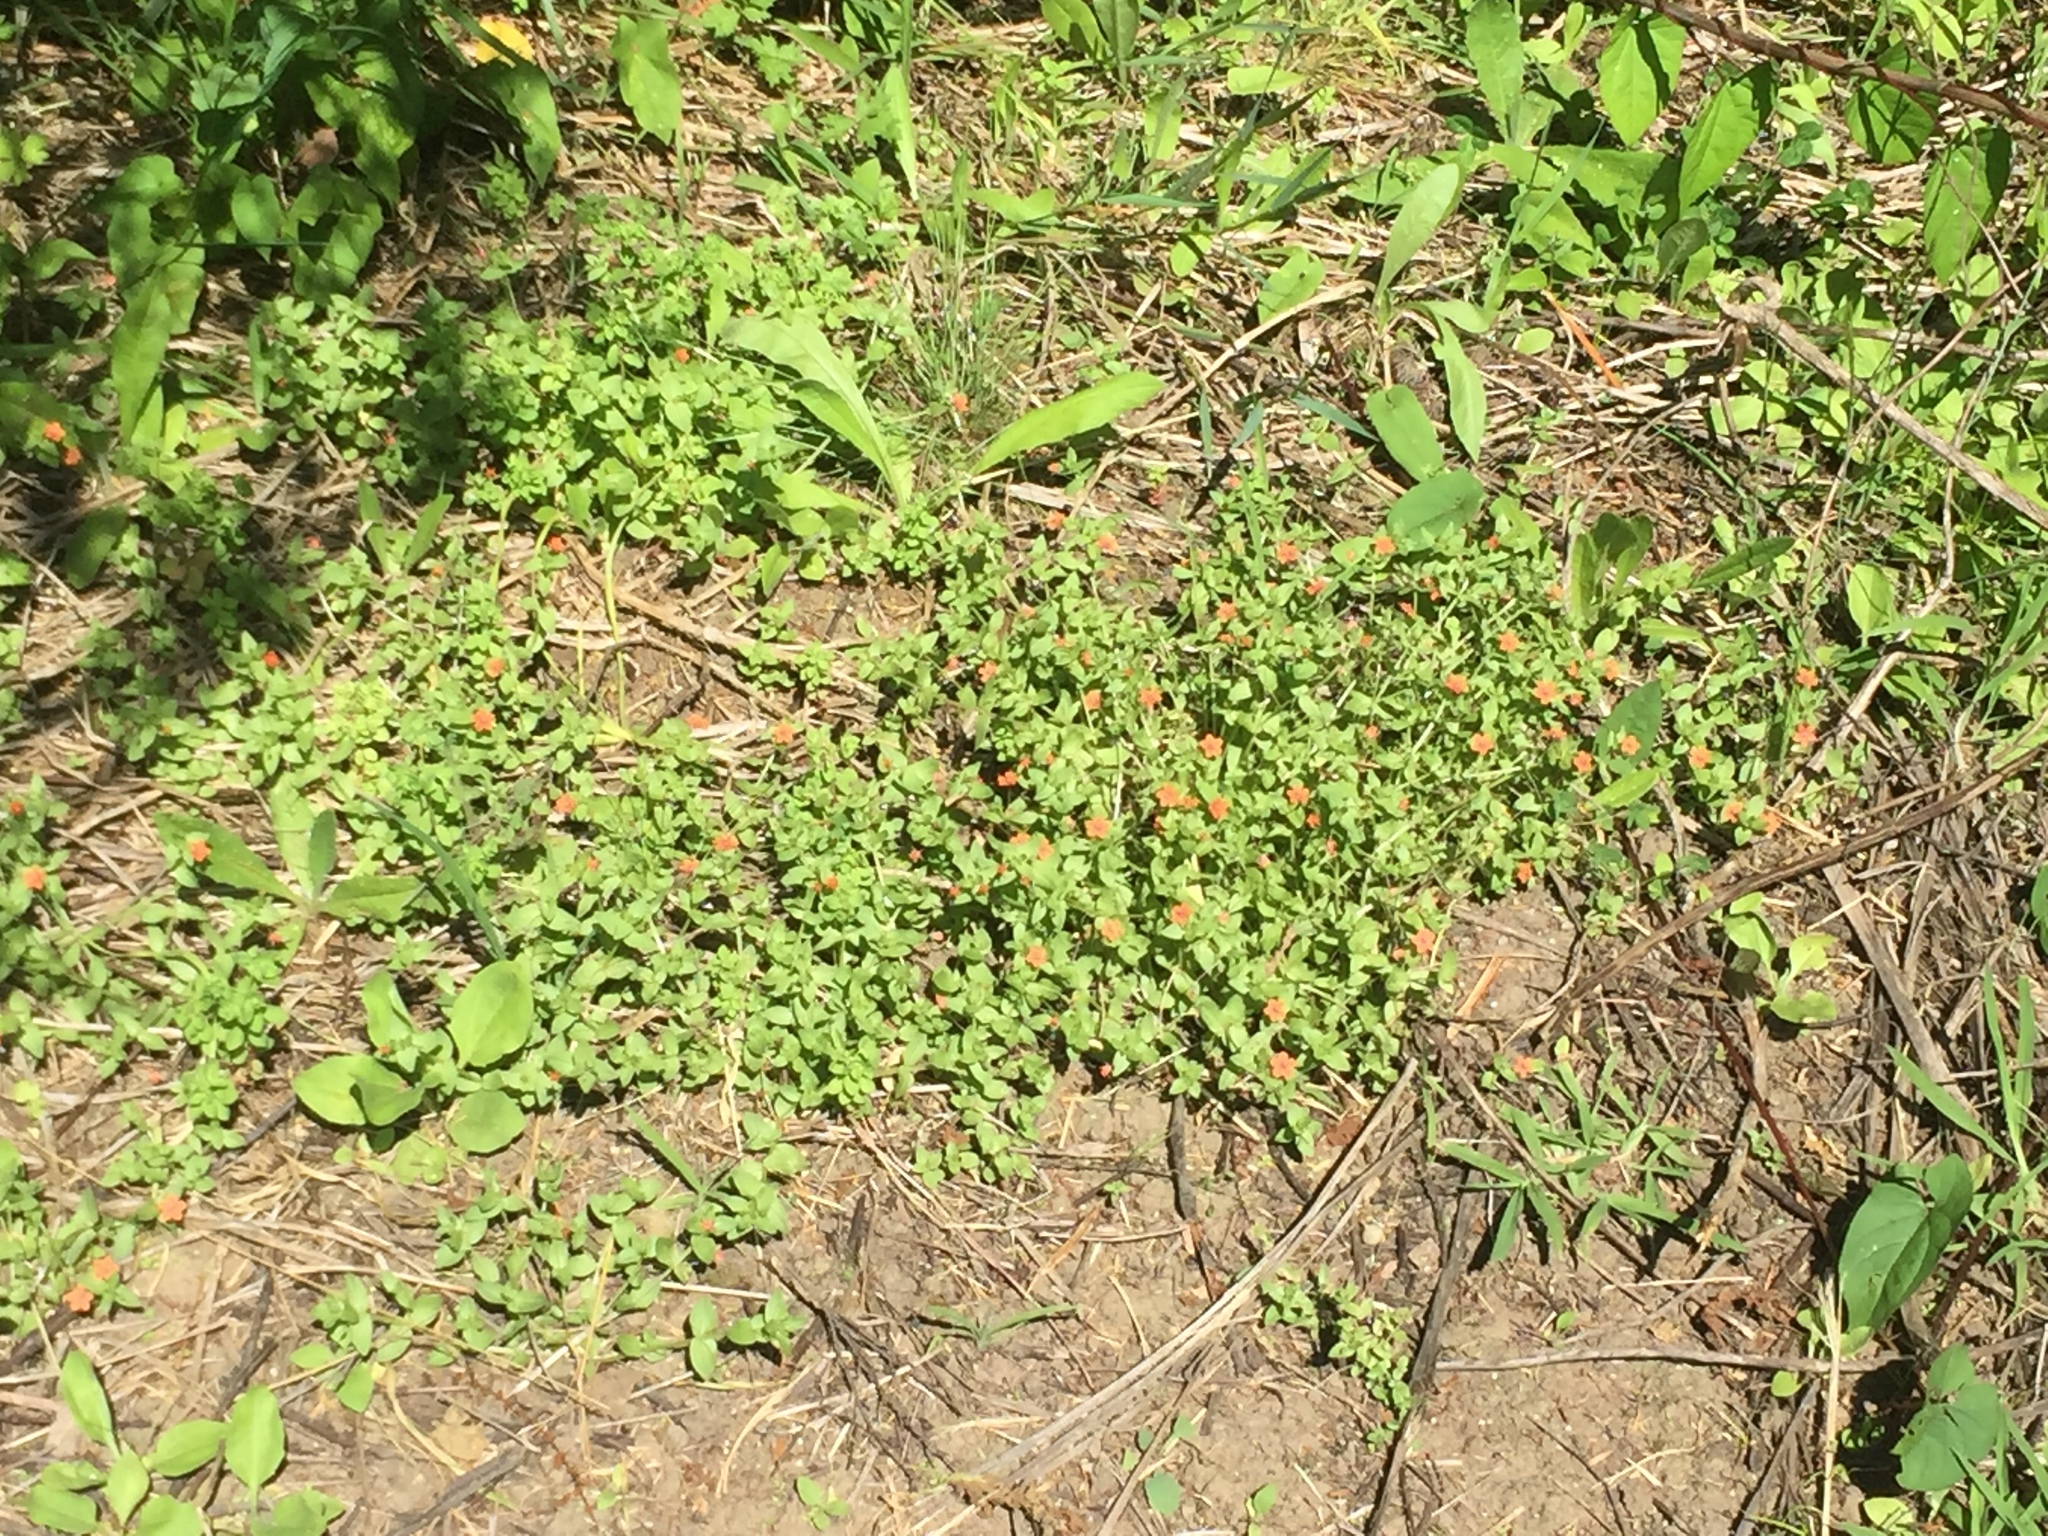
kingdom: Plantae
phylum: Tracheophyta
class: Magnoliopsida
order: Ericales
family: Primulaceae
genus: Lysimachia
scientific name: Lysimachia arvensis
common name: Scarlet pimpernel
